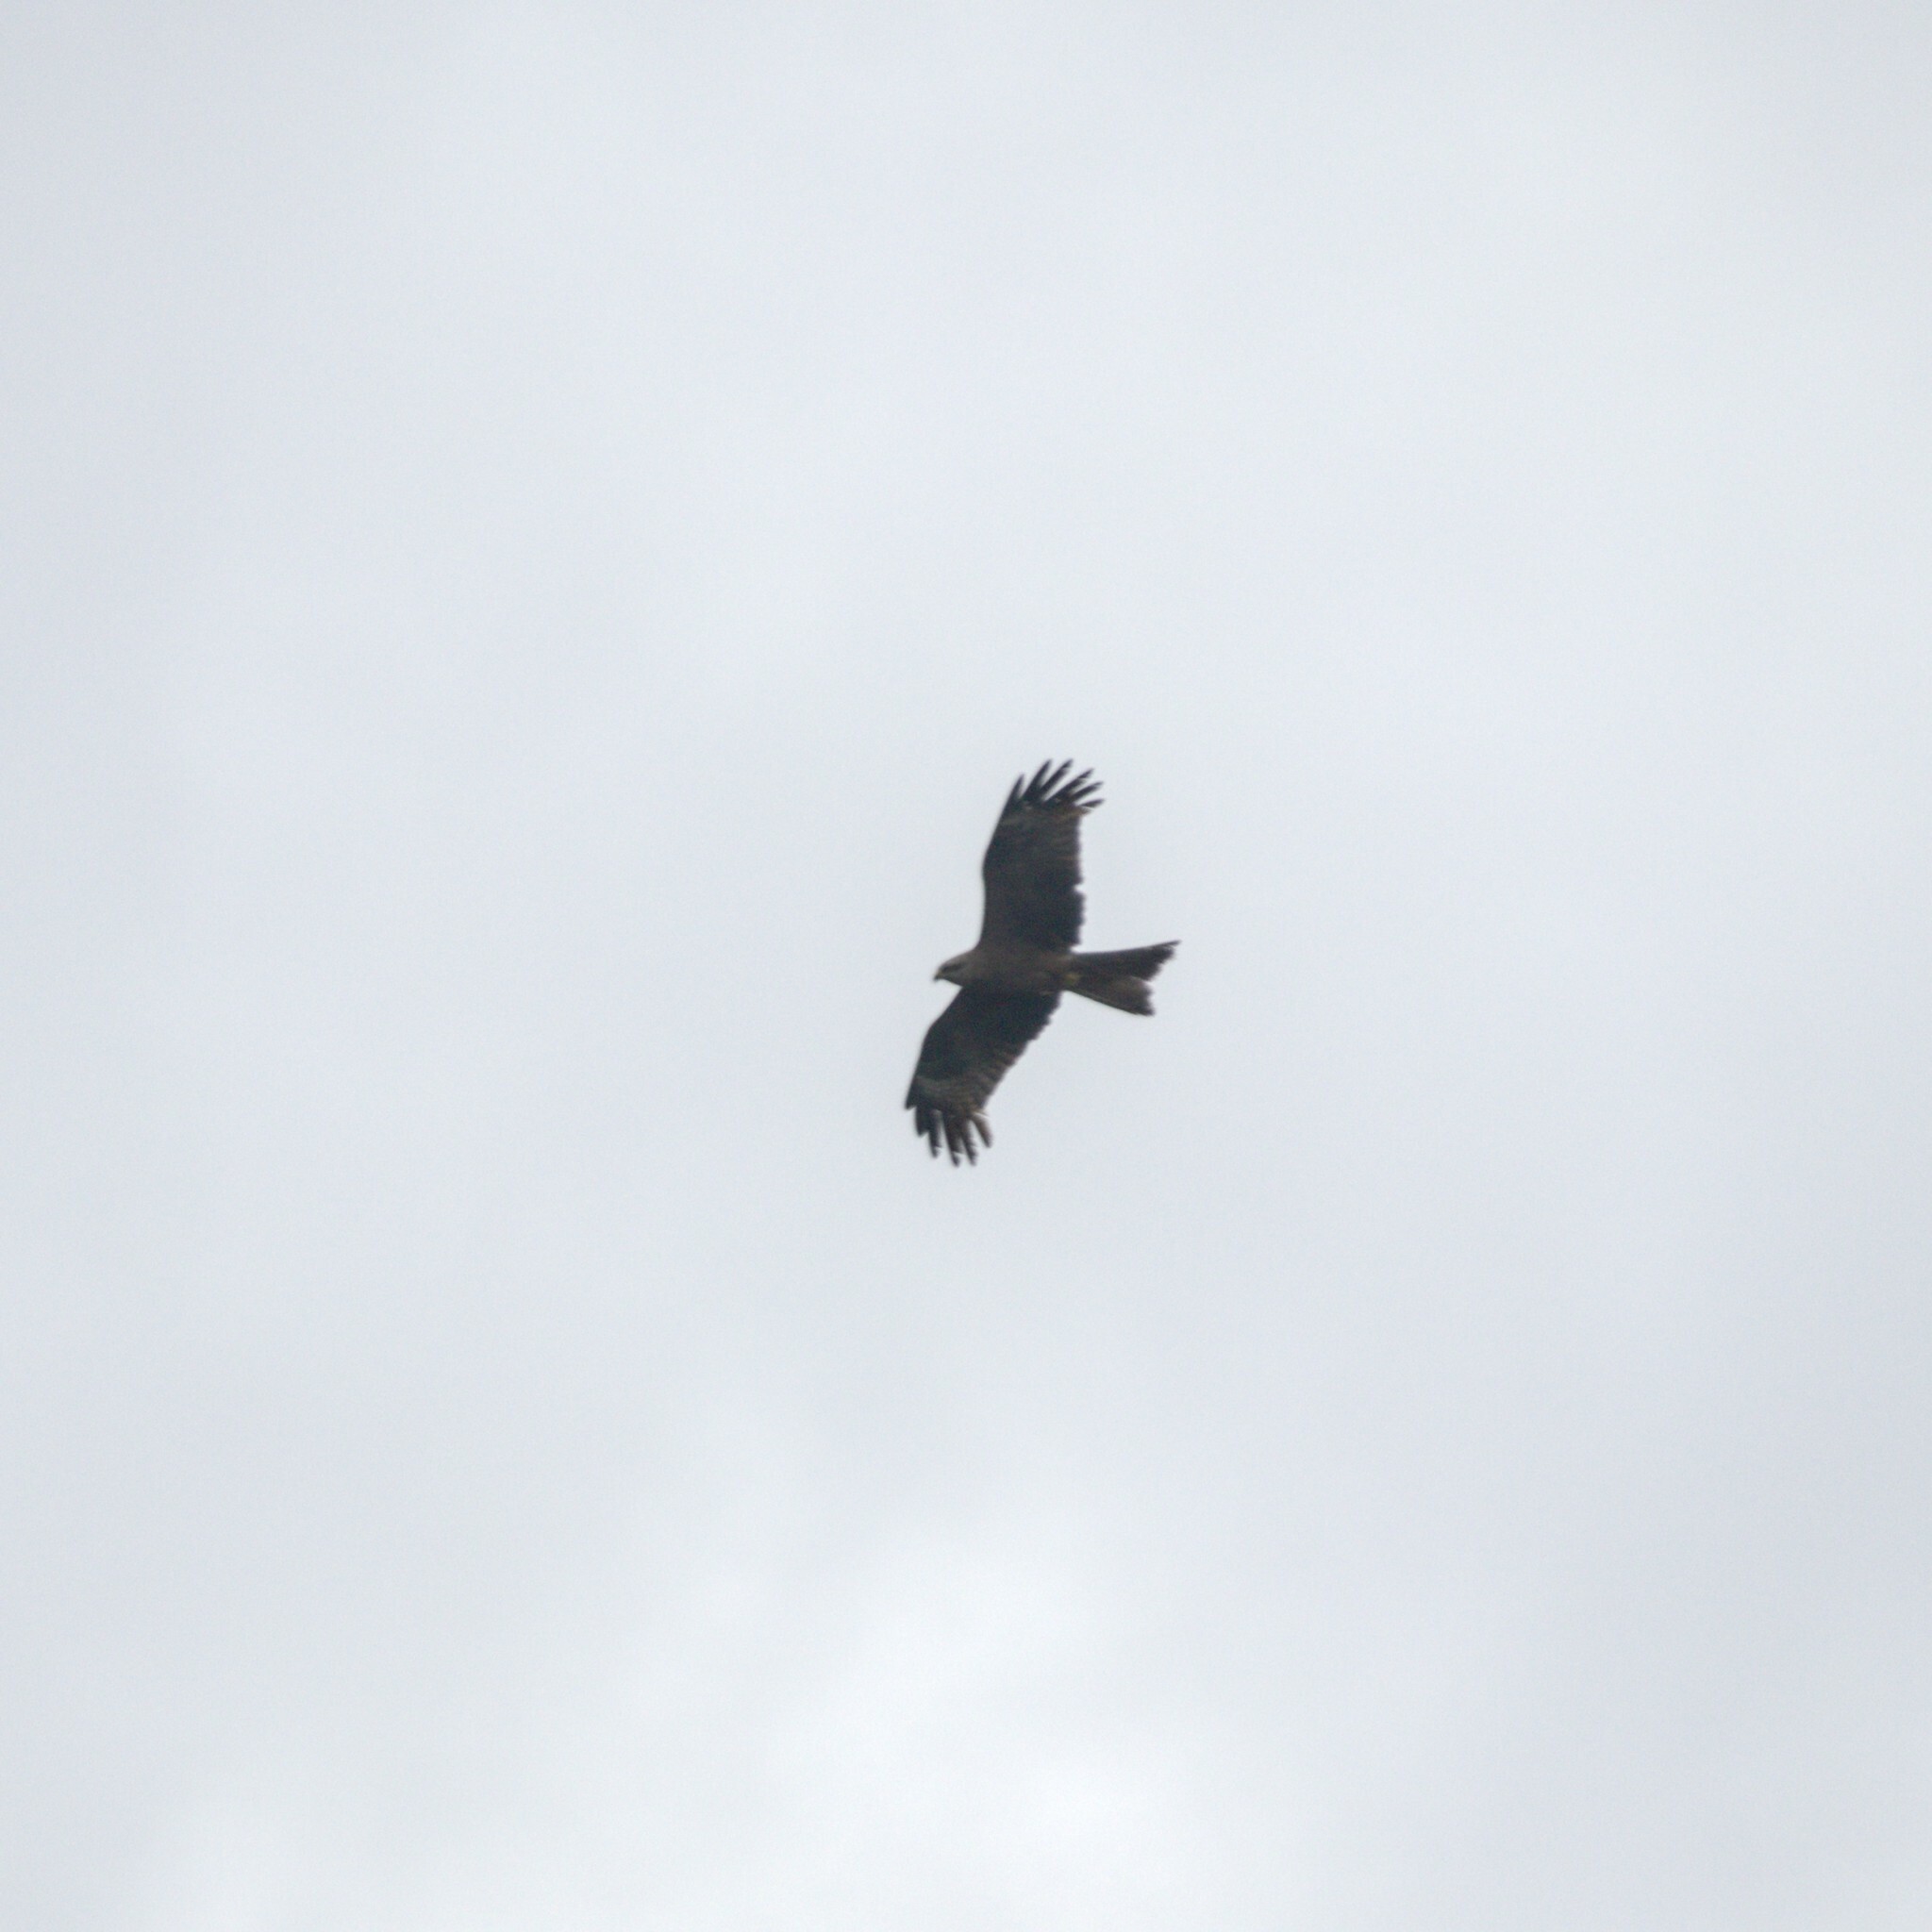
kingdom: Animalia
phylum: Chordata
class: Aves
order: Accipitriformes
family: Accipitridae
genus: Milvus
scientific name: Milvus migrans
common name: Black kite
